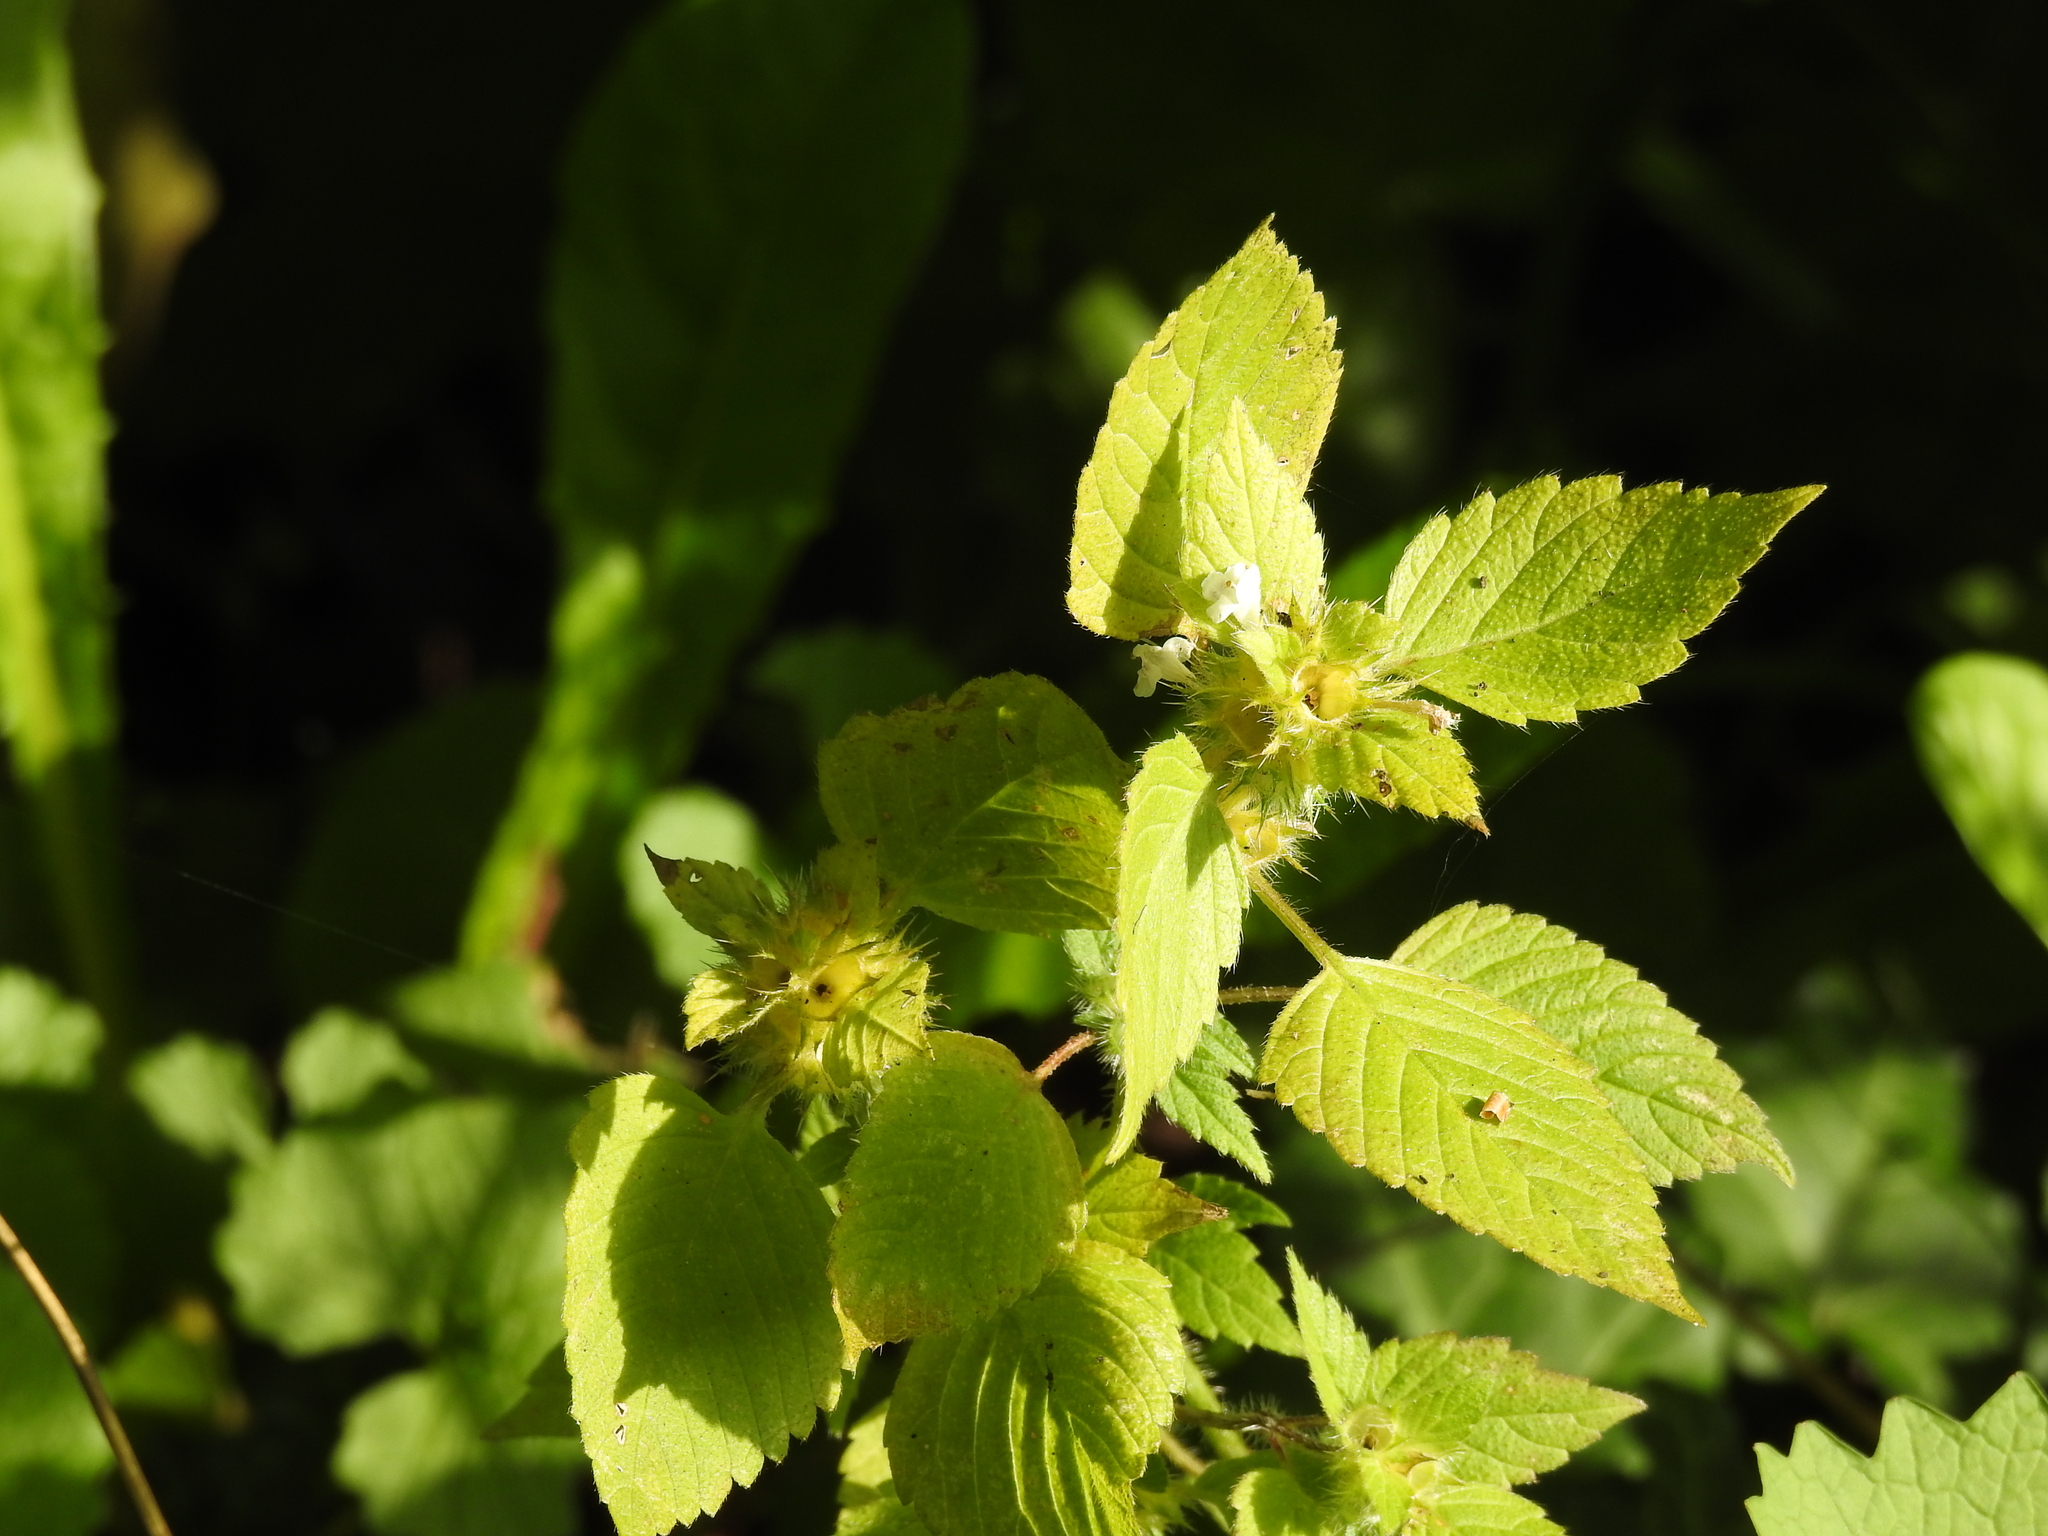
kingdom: Plantae
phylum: Tracheophyta
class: Magnoliopsida
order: Lamiales
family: Lamiaceae
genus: Galeopsis
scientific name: Galeopsis tetrahit
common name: Common hemp-nettle
